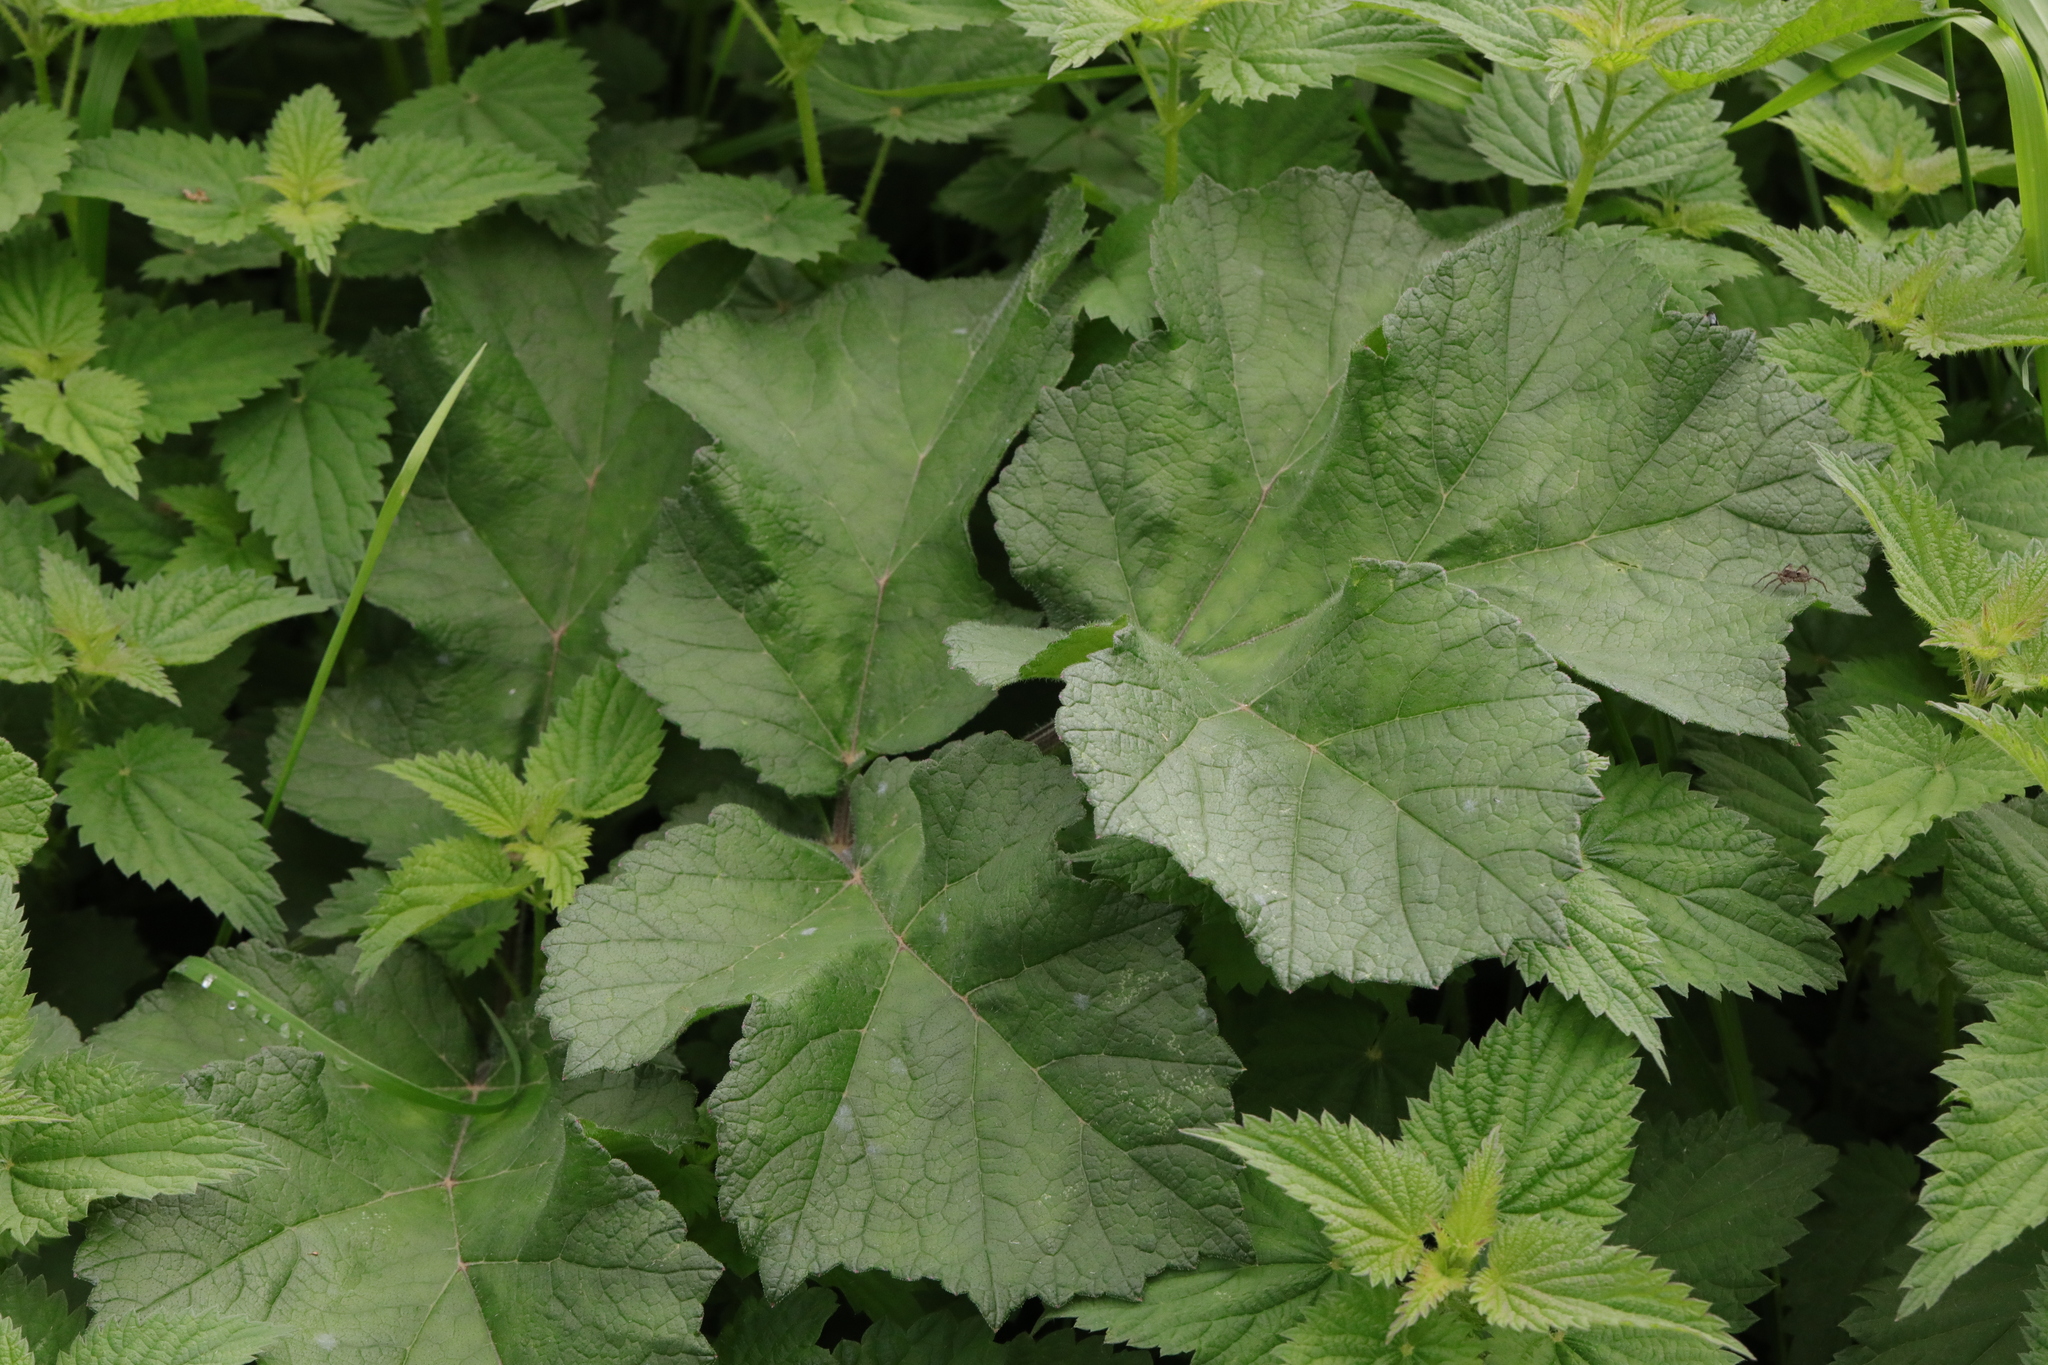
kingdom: Plantae
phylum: Tracheophyta
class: Magnoliopsida
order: Apiales
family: Apiaceae
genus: Heracleum
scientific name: Heracleum sphondylium
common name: Hogweed
